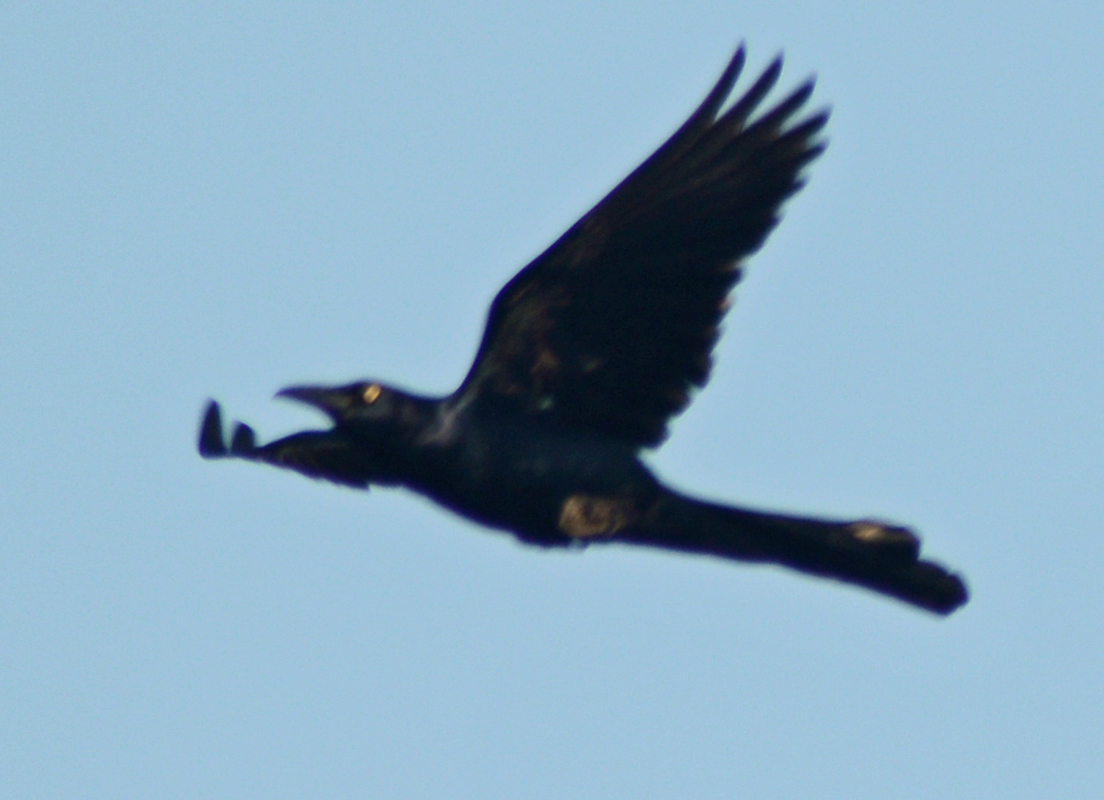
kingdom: Animalia
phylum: Chordata
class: Aves
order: Passeriformes
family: Icteridae
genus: Quiscalus
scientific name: Quiscalus mexicanus
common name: Great-tailed grackle
